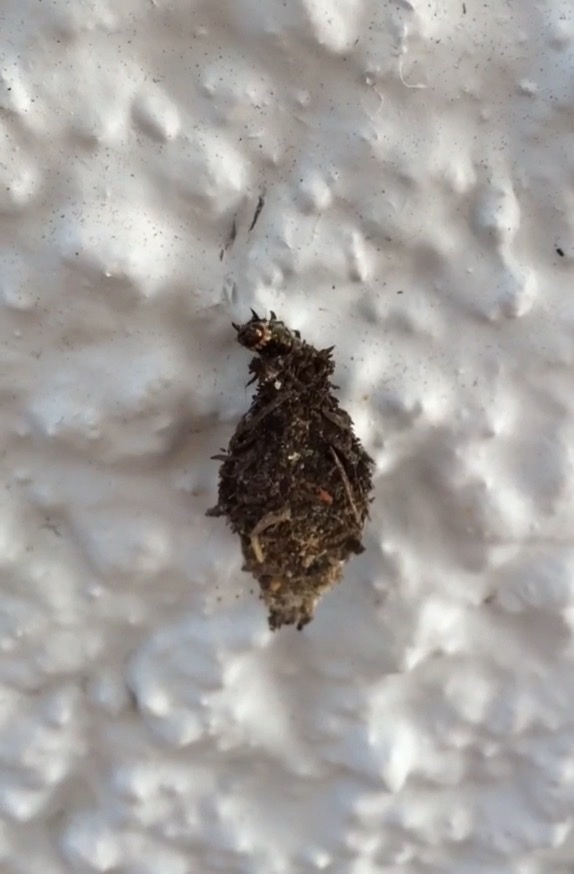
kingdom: Animalia
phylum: Arthropoda
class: Insecta
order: Lepidoptera
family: Psychidae
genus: Cebysa
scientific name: Cebysa leucotelus
